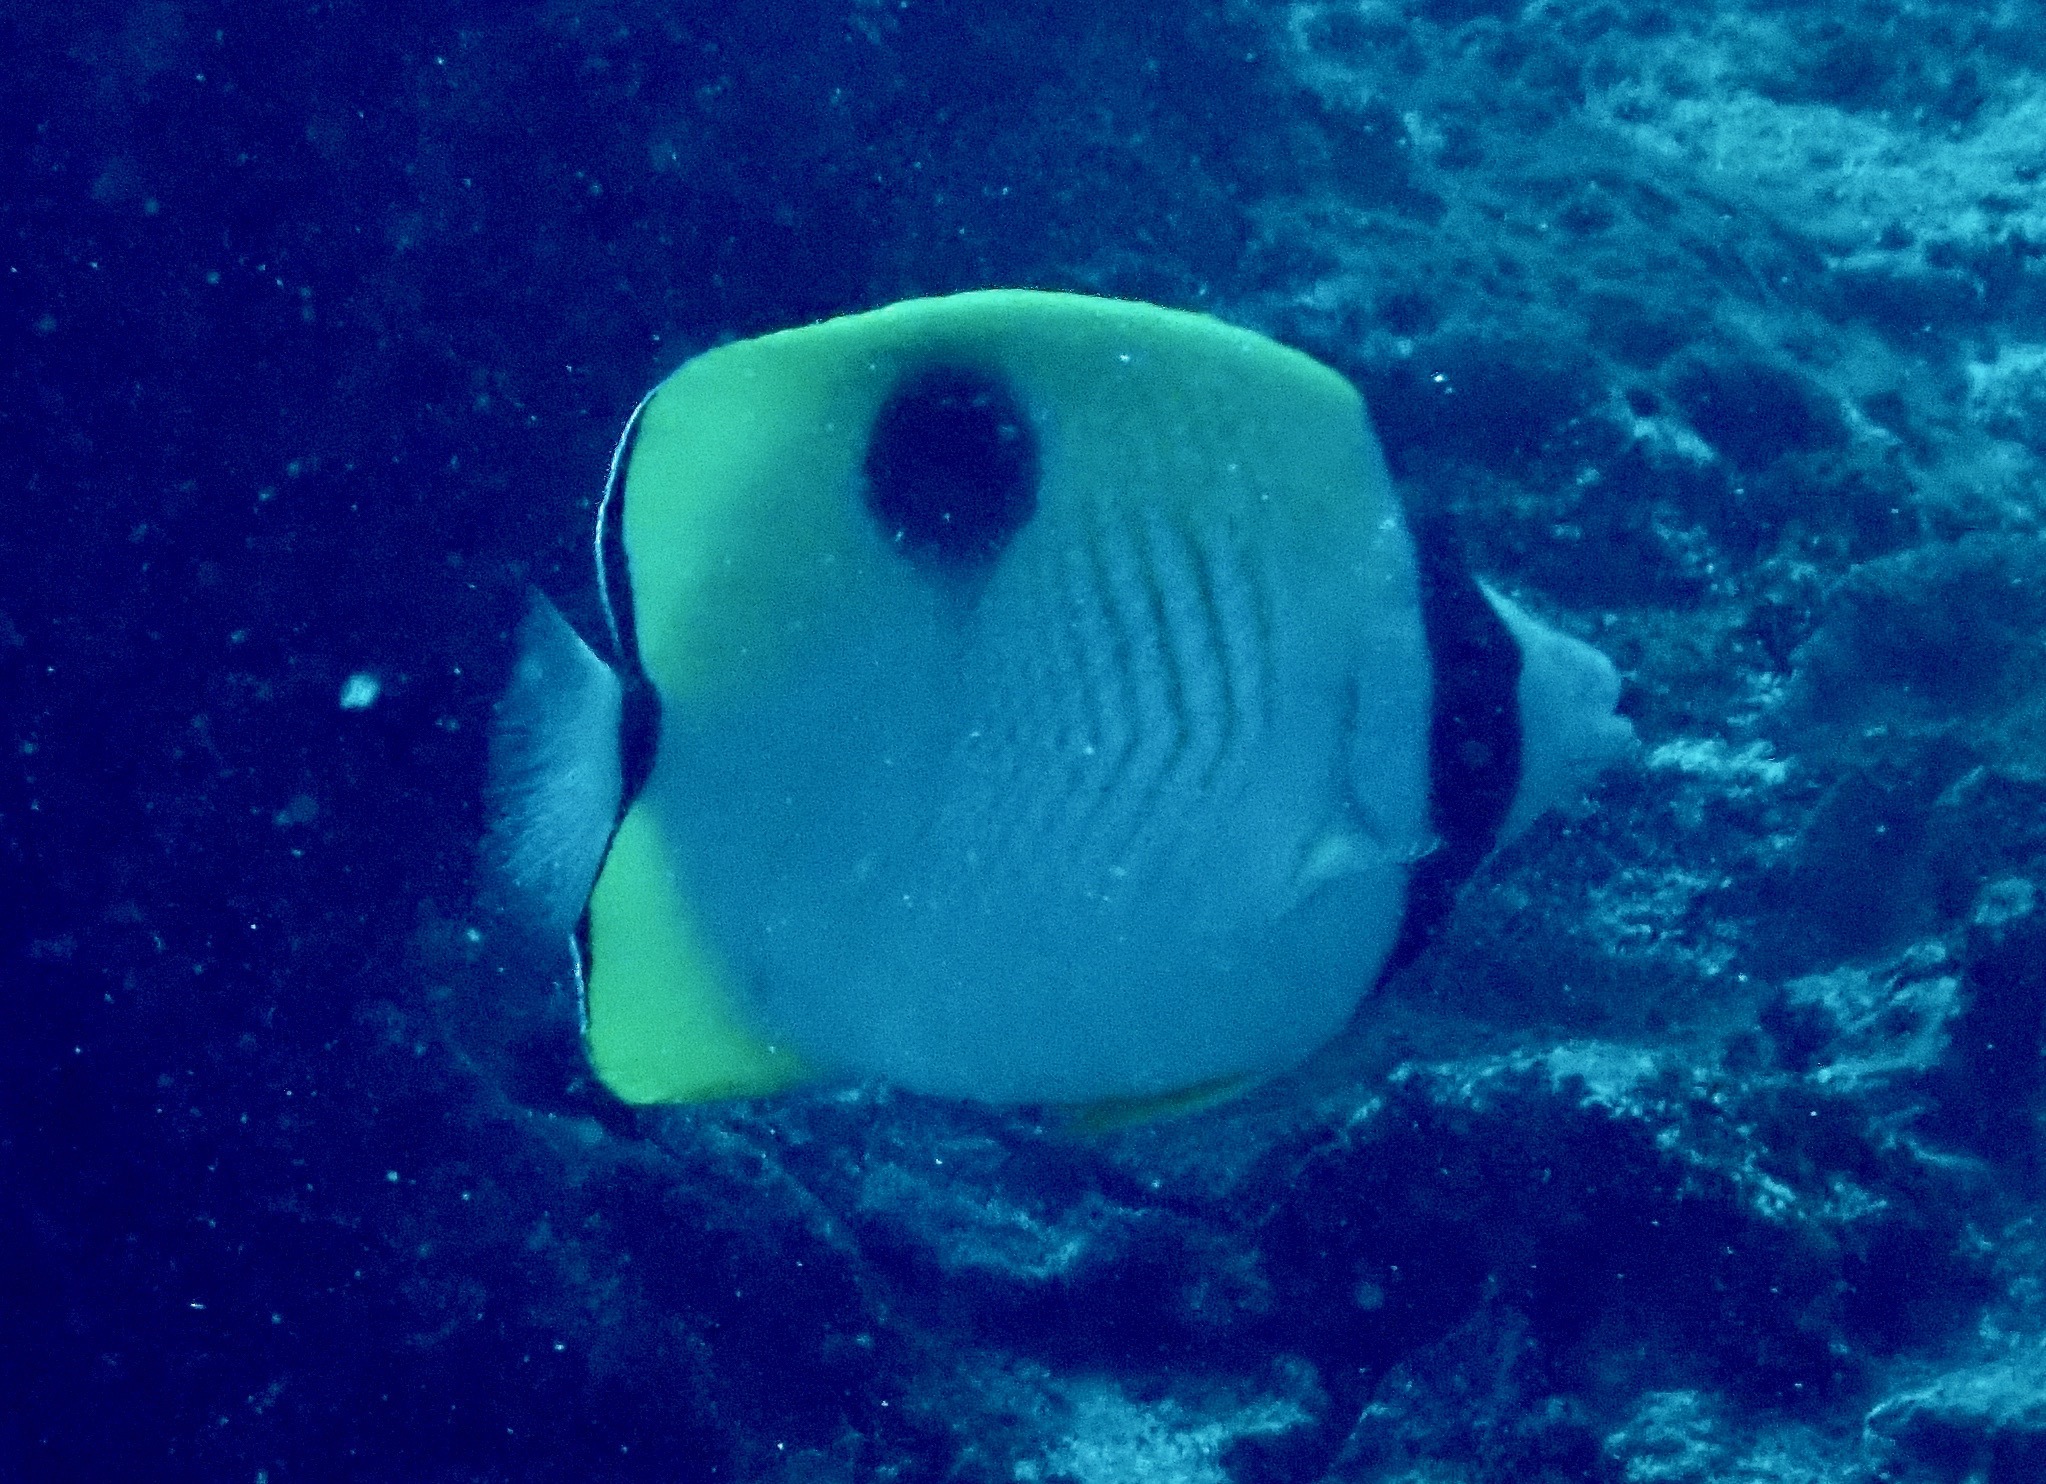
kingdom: Animalia
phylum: Chordata
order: Perciformes
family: Chaetodontidae
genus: Chaetodon
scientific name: Chaetodon unimaculatus
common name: Teardrop butterflyfish
